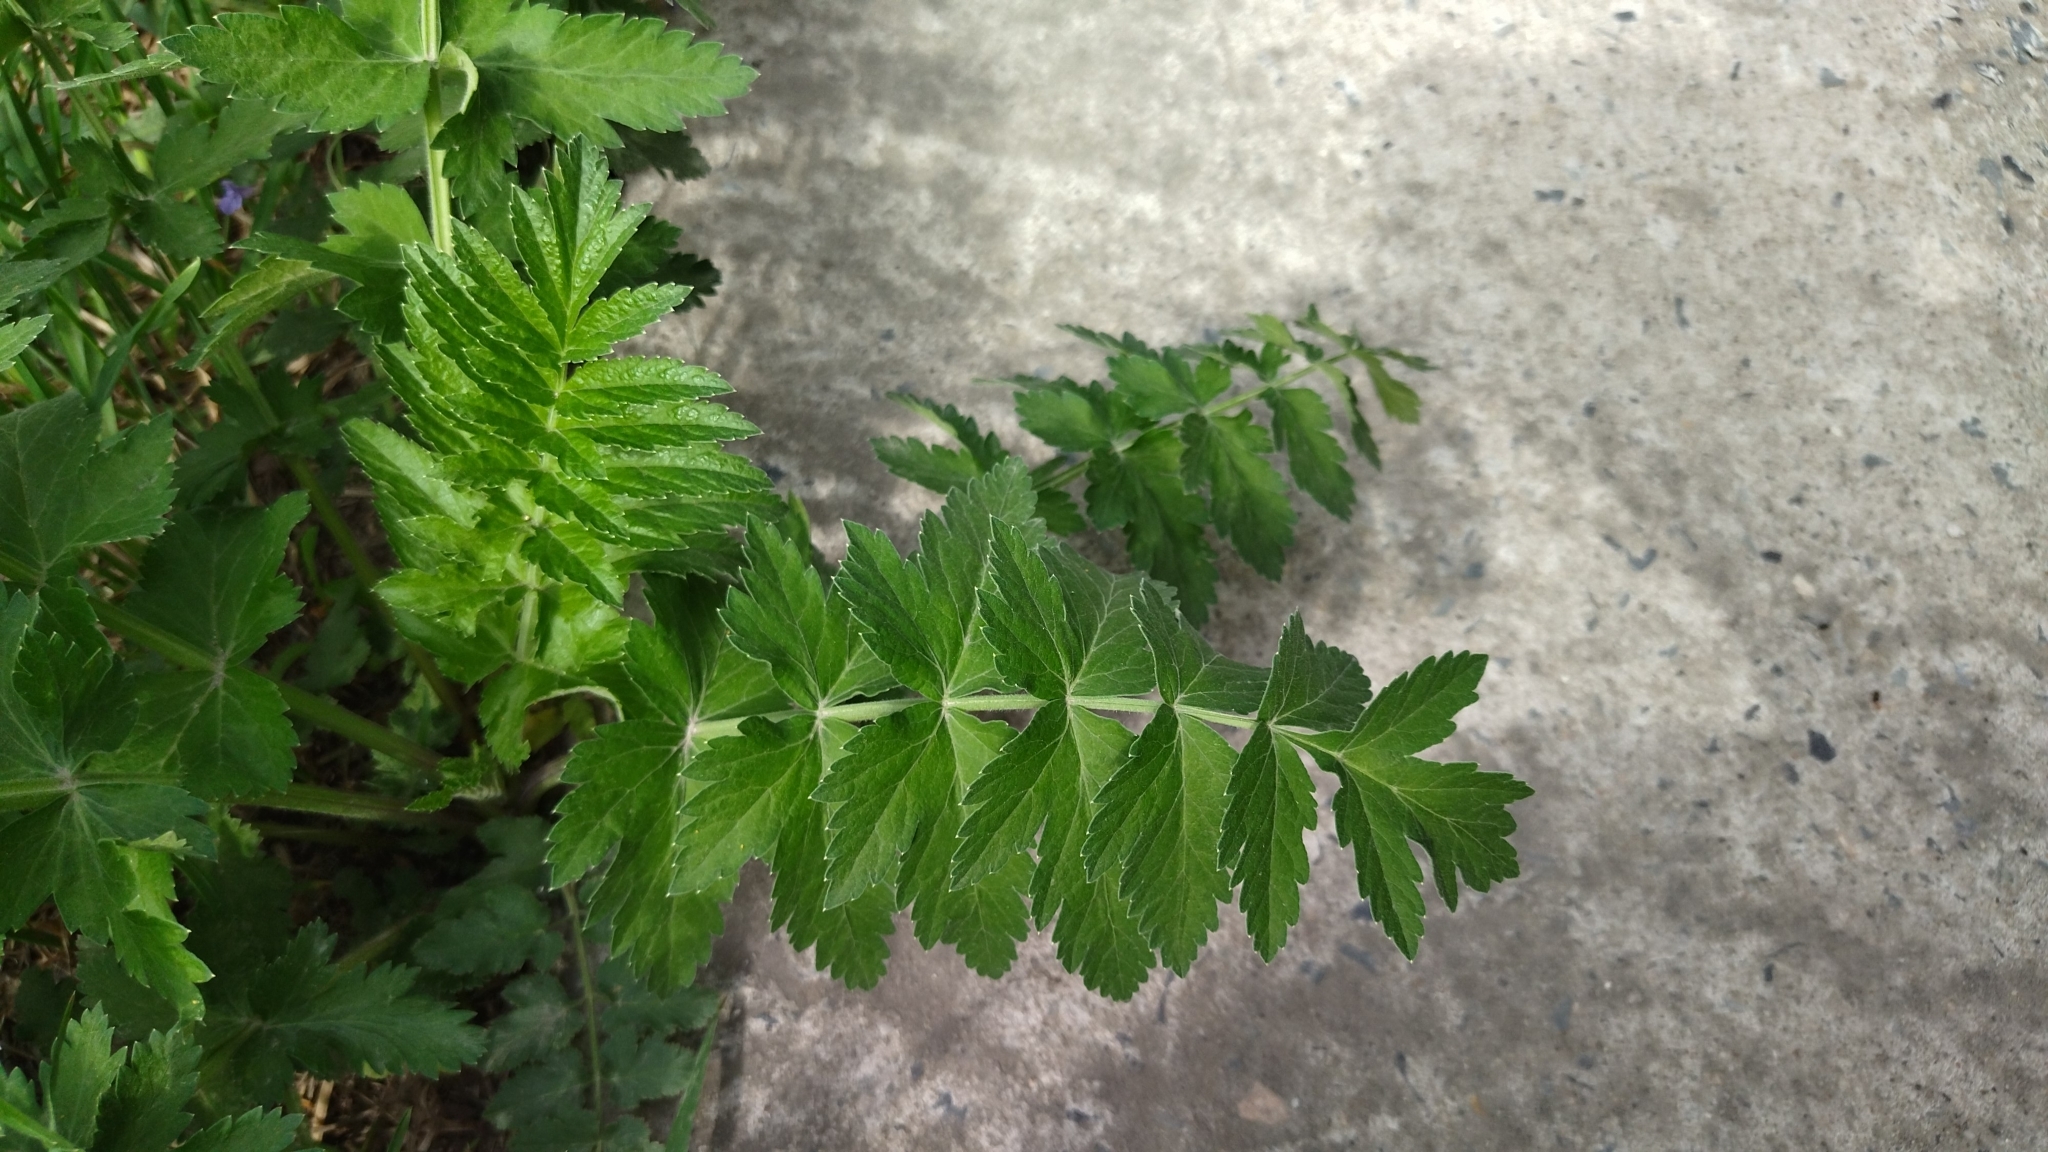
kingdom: Plantae
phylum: Tracheophyta
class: Magnoliopsida
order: Apiales
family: Apiaceae
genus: Pastinaca
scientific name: Pastinaca sativa
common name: Wild parsnip
